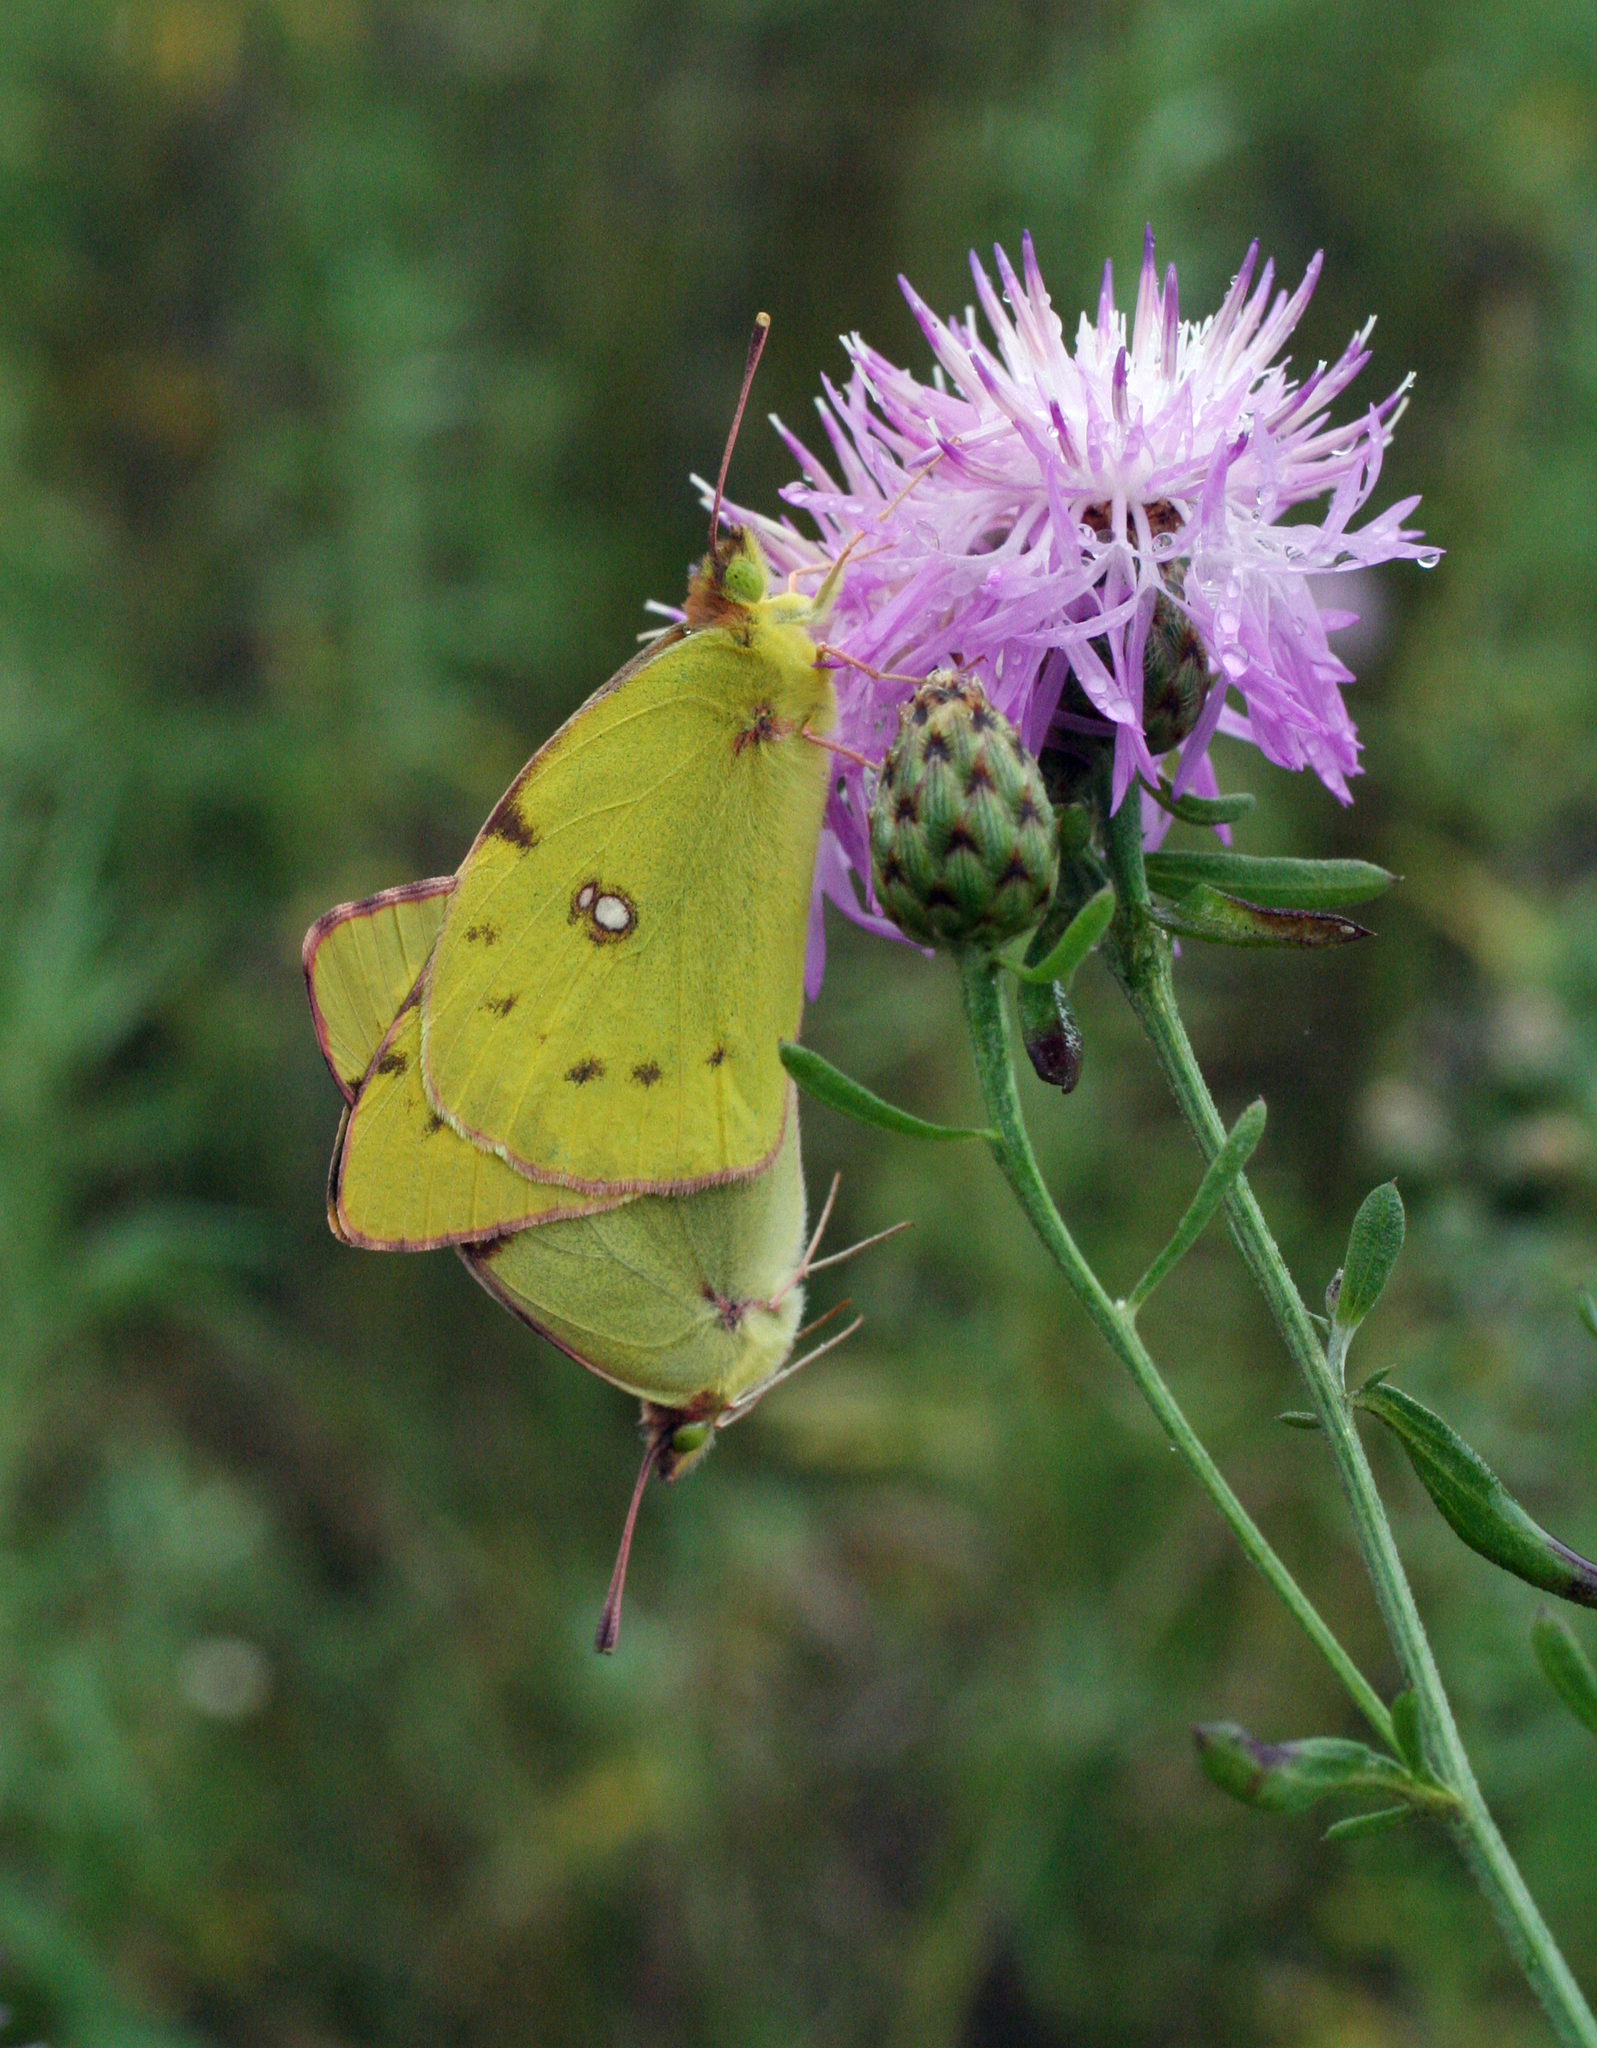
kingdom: Animalia
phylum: Arthropoda
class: Insecta
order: Lepidoptera
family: Pieridae
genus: Colias
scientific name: Colias poliographus
